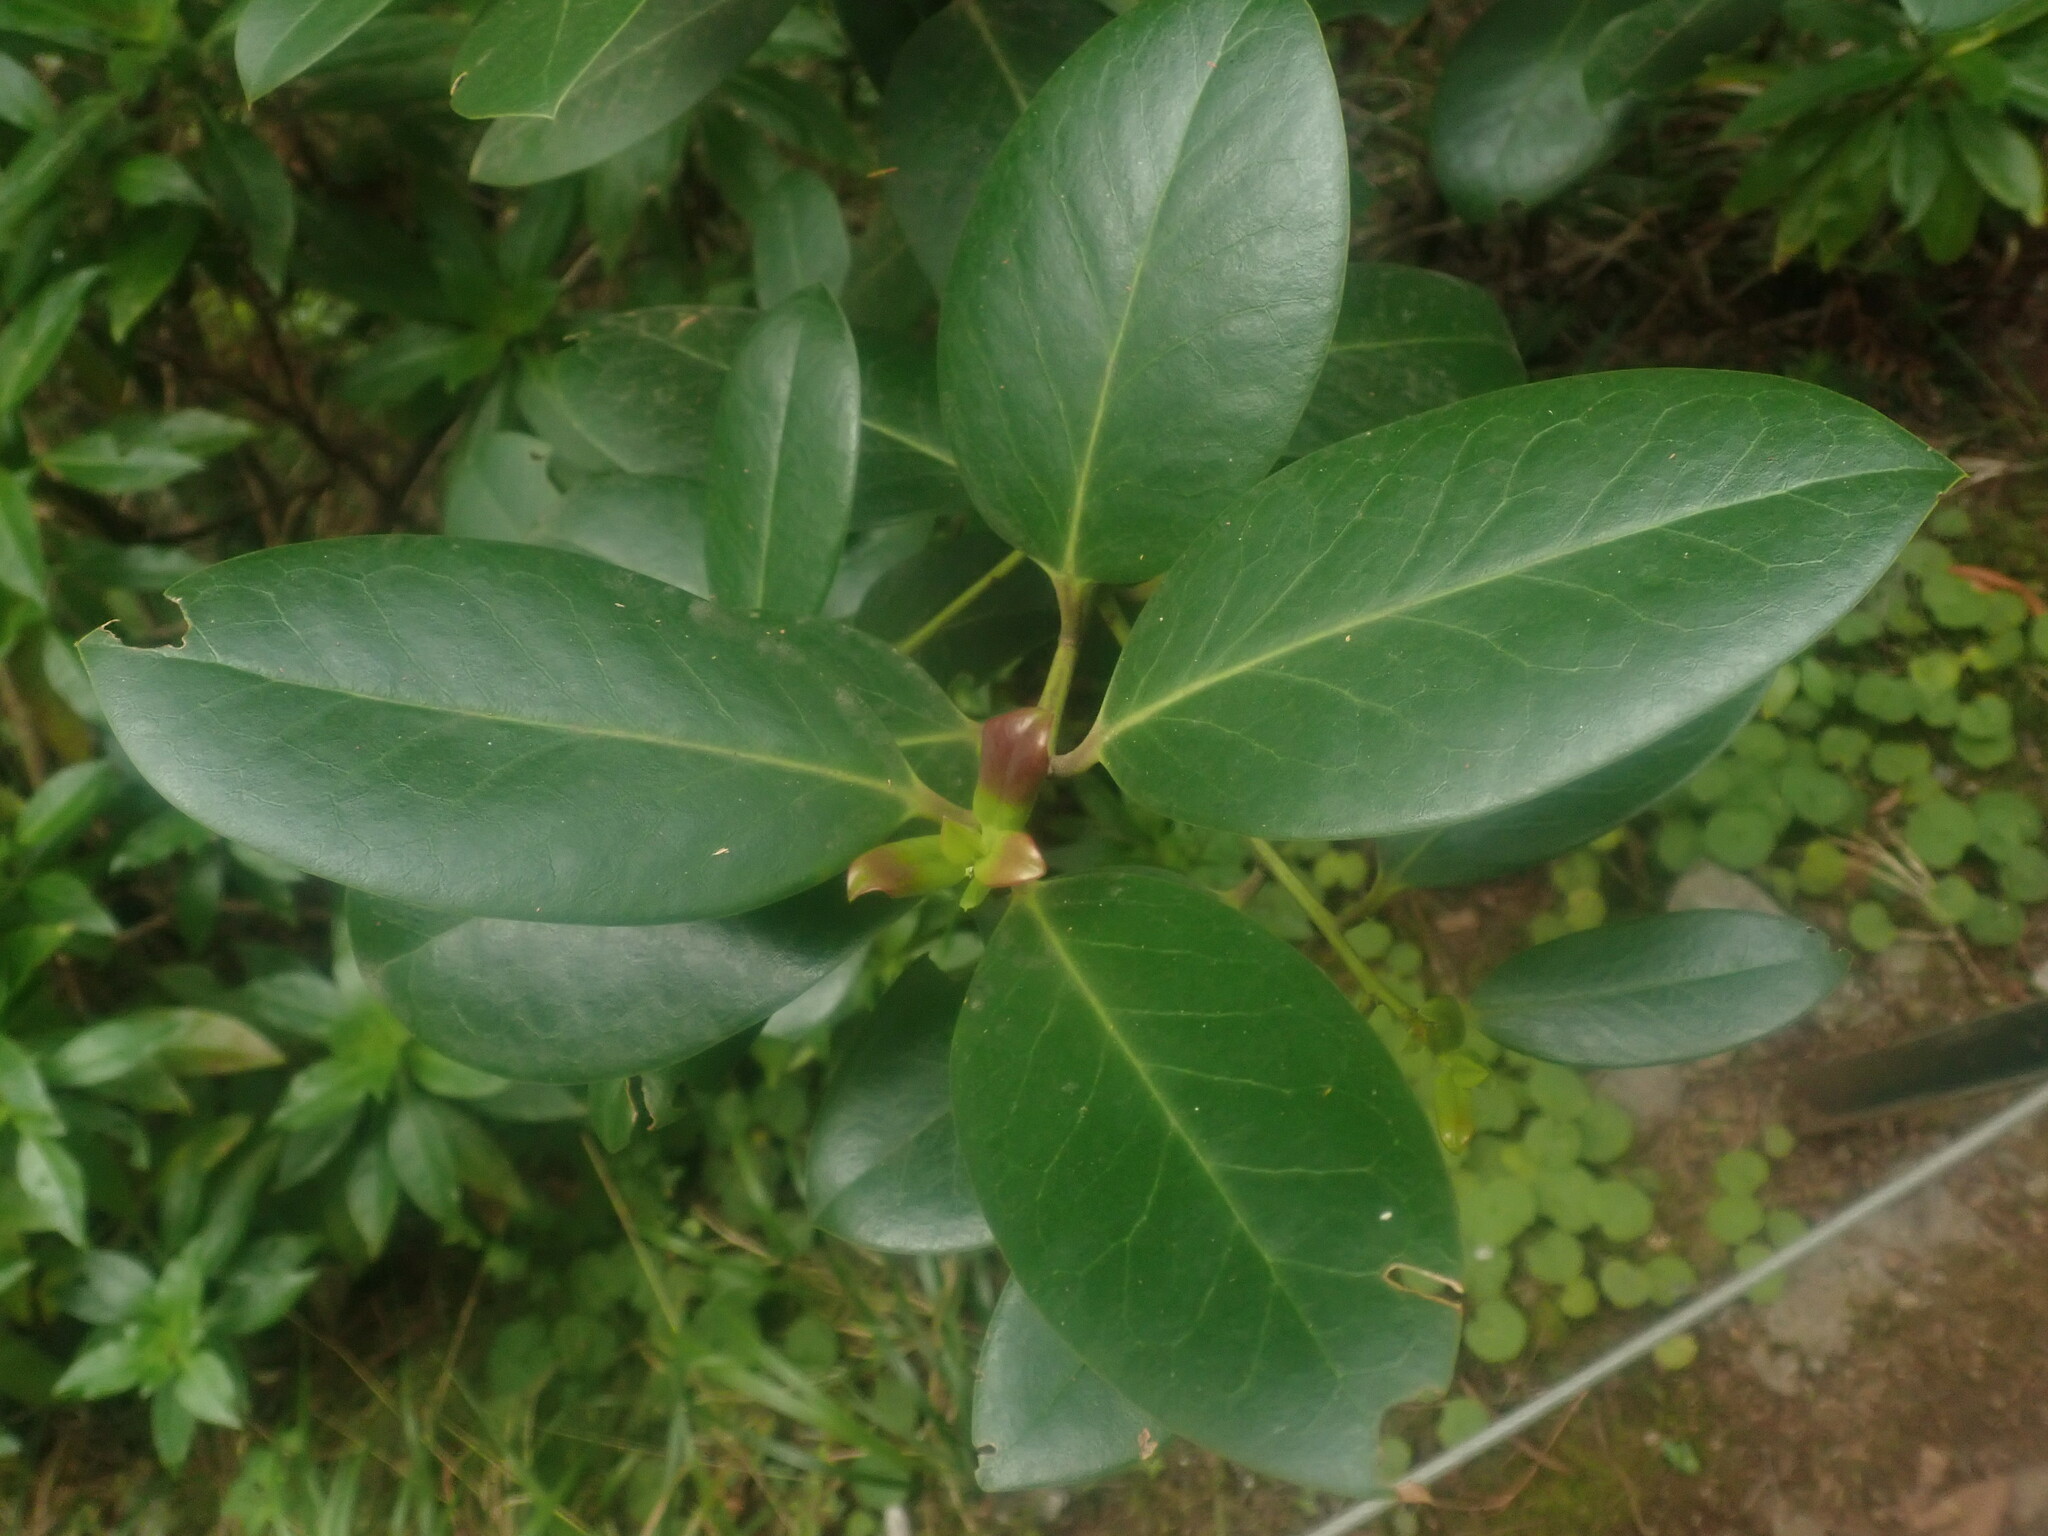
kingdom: Plantae
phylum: Tracheophyta
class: Magnoliopsida
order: Aquifoliales
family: Aquifoliaceae
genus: Ilex
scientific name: Ilex perado
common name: Madeira holly
